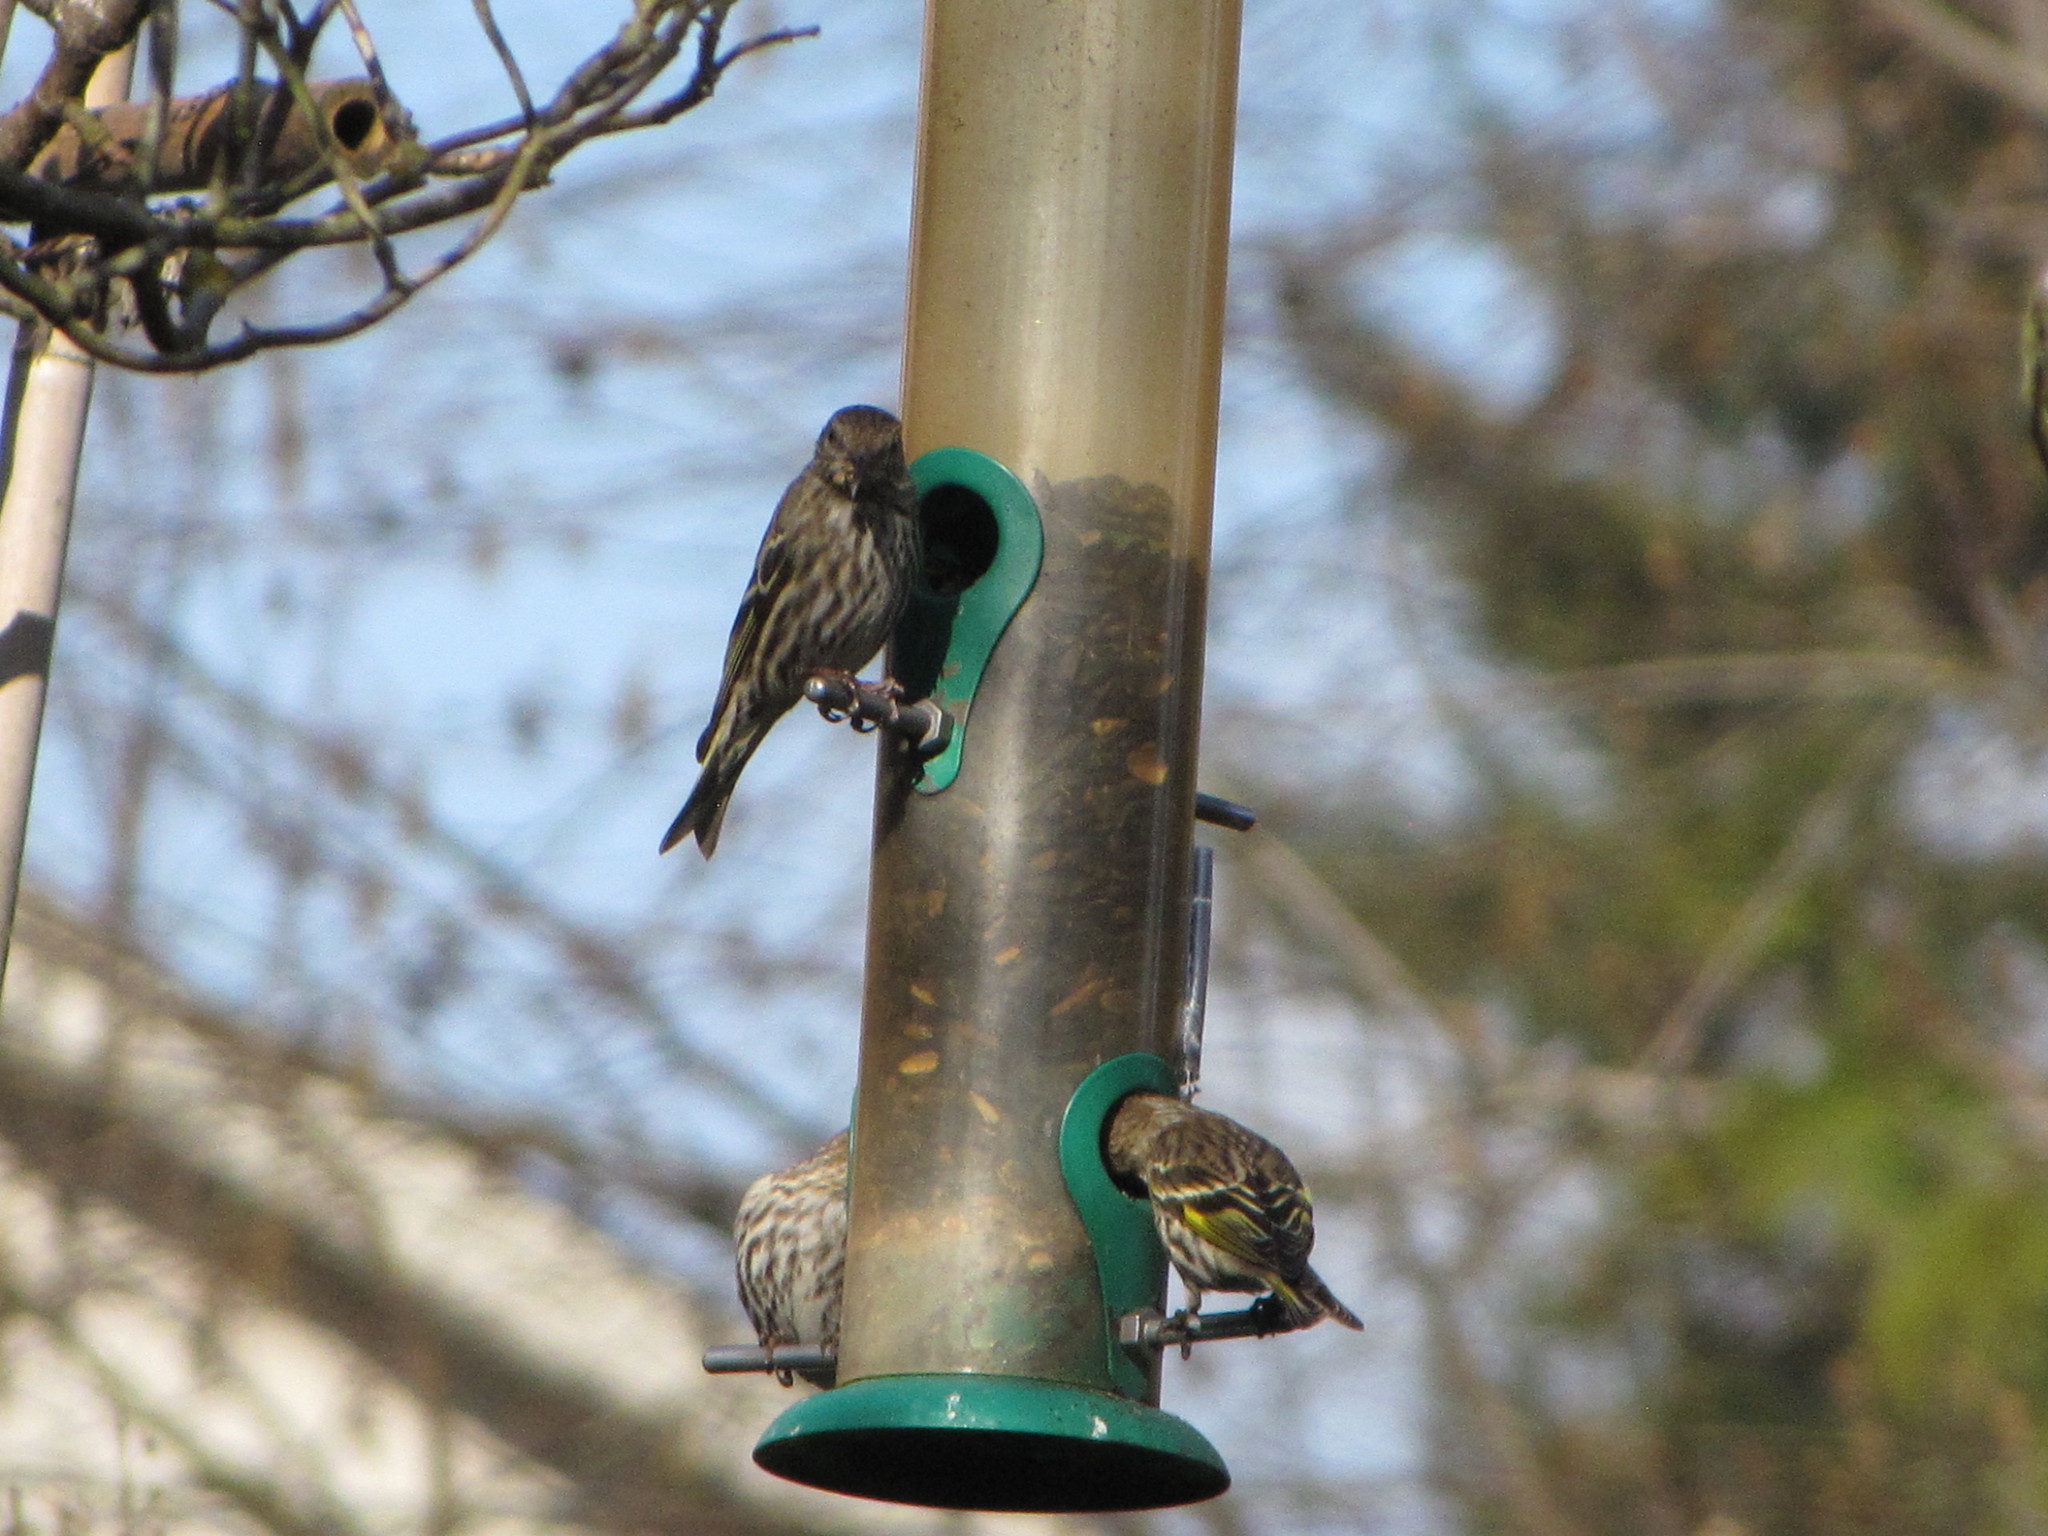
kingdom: Animalia
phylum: Chordata
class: Aves
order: Passeriformes
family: Fringillidae
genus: Spinus
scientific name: Spinus pinus
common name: Pine siskin
